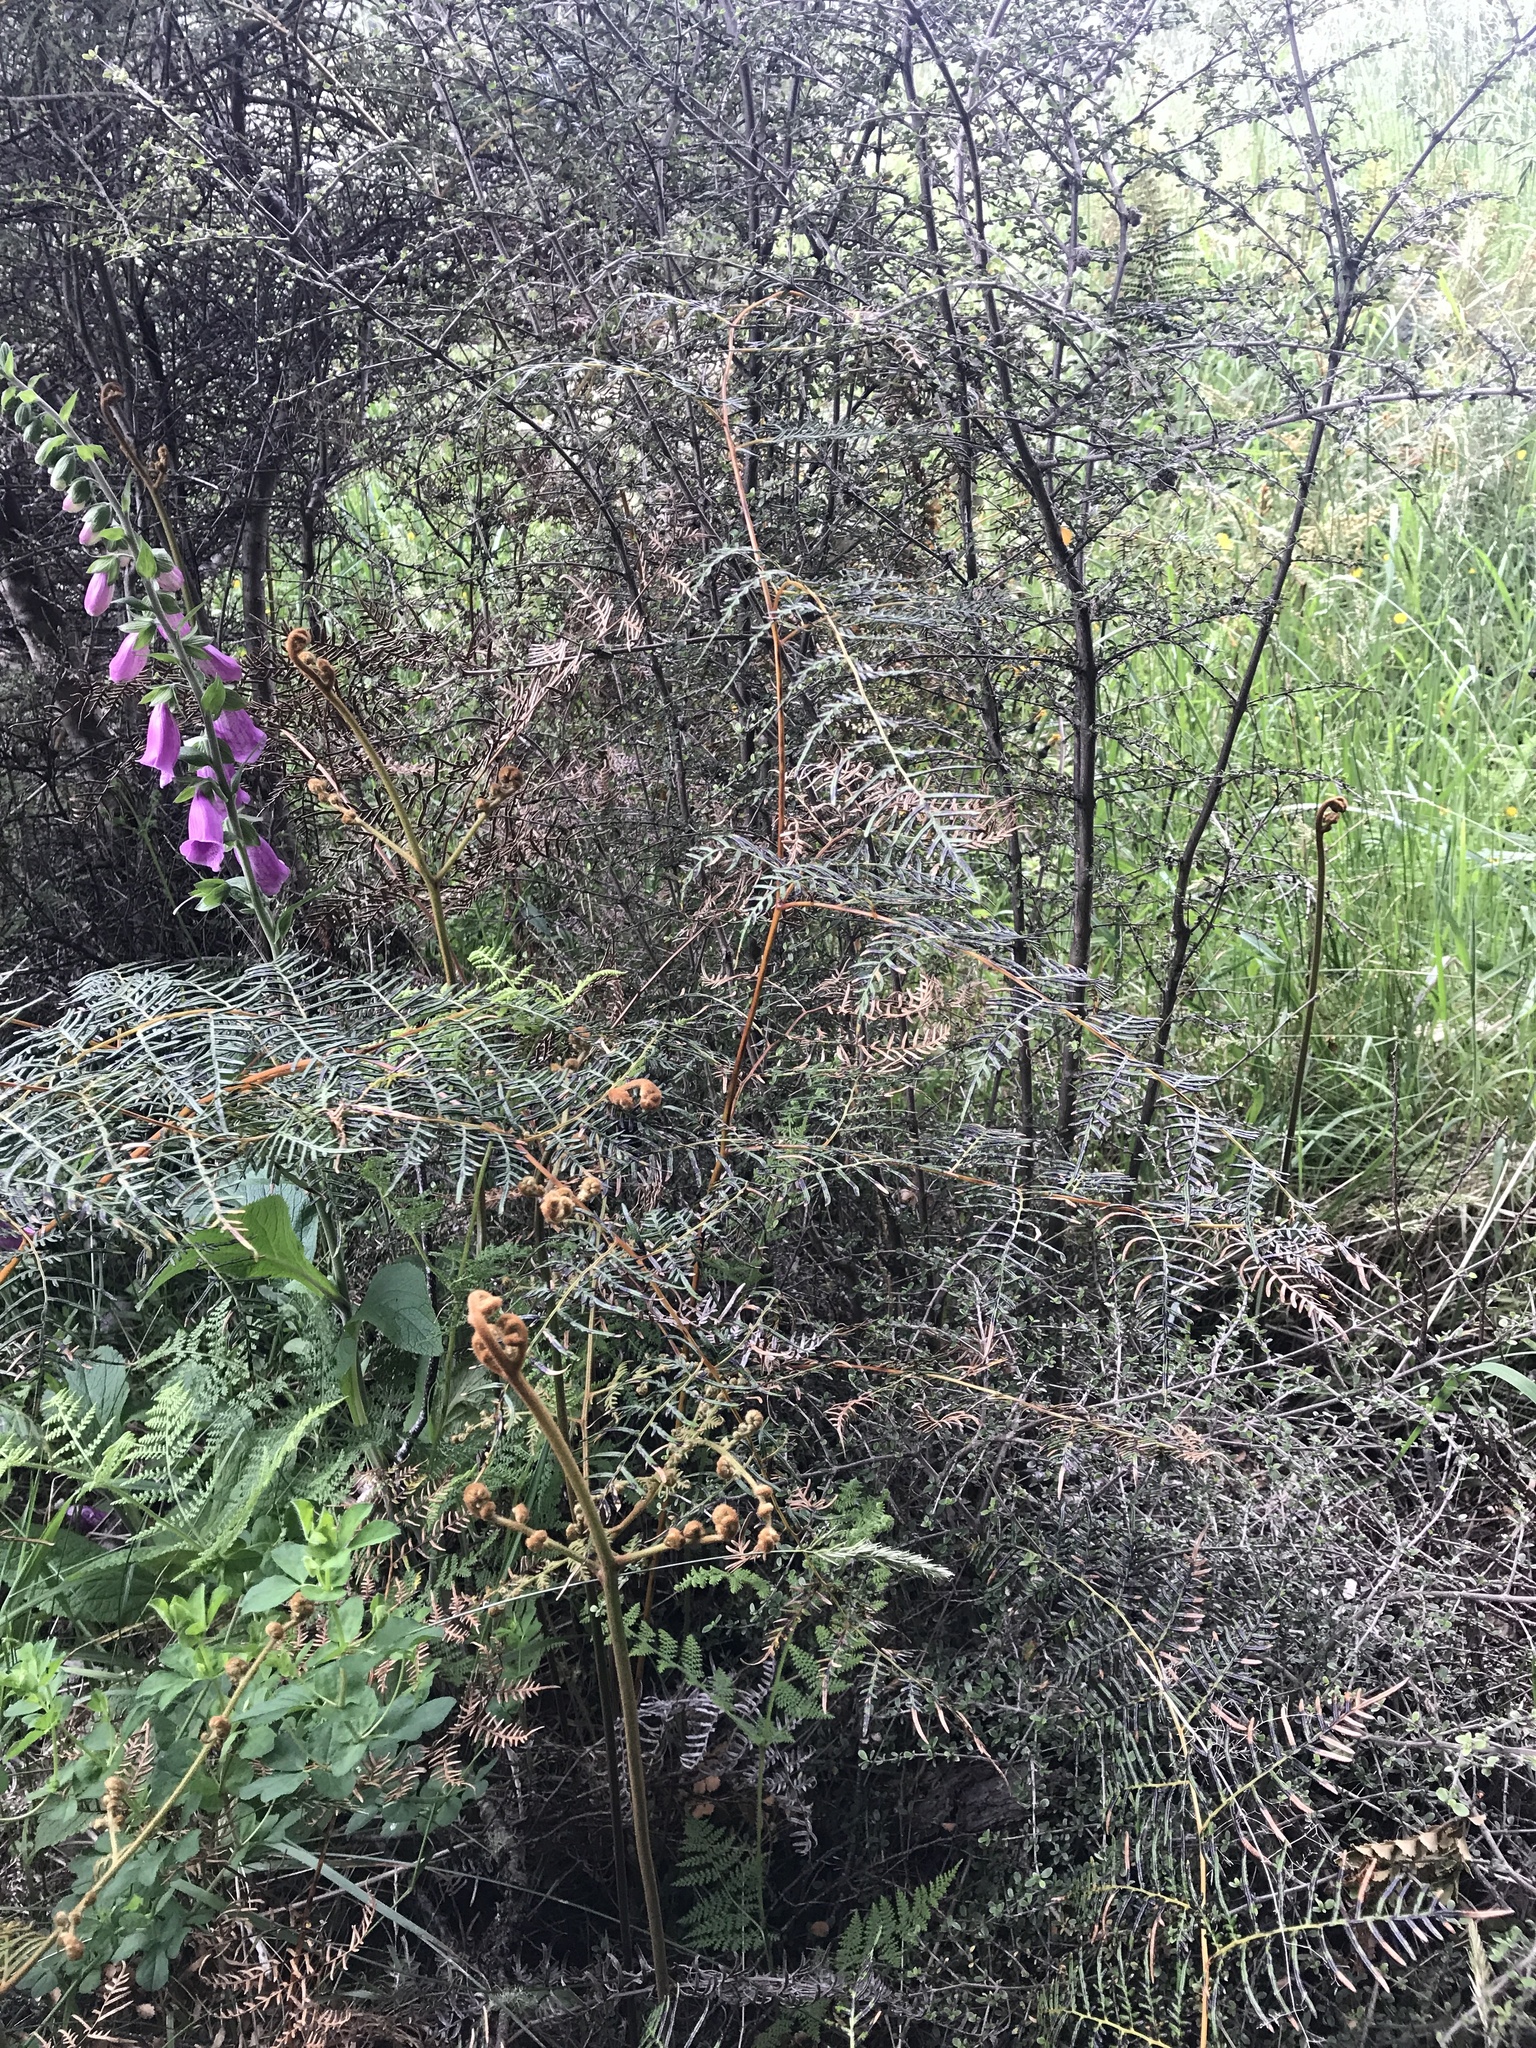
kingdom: Plantae
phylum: Tracheophyta
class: Polypodiopsida
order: Polypodiales
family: Dennstaedtiaceae
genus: Pteridium
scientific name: Pteridium esculentum
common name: Bracken fern
